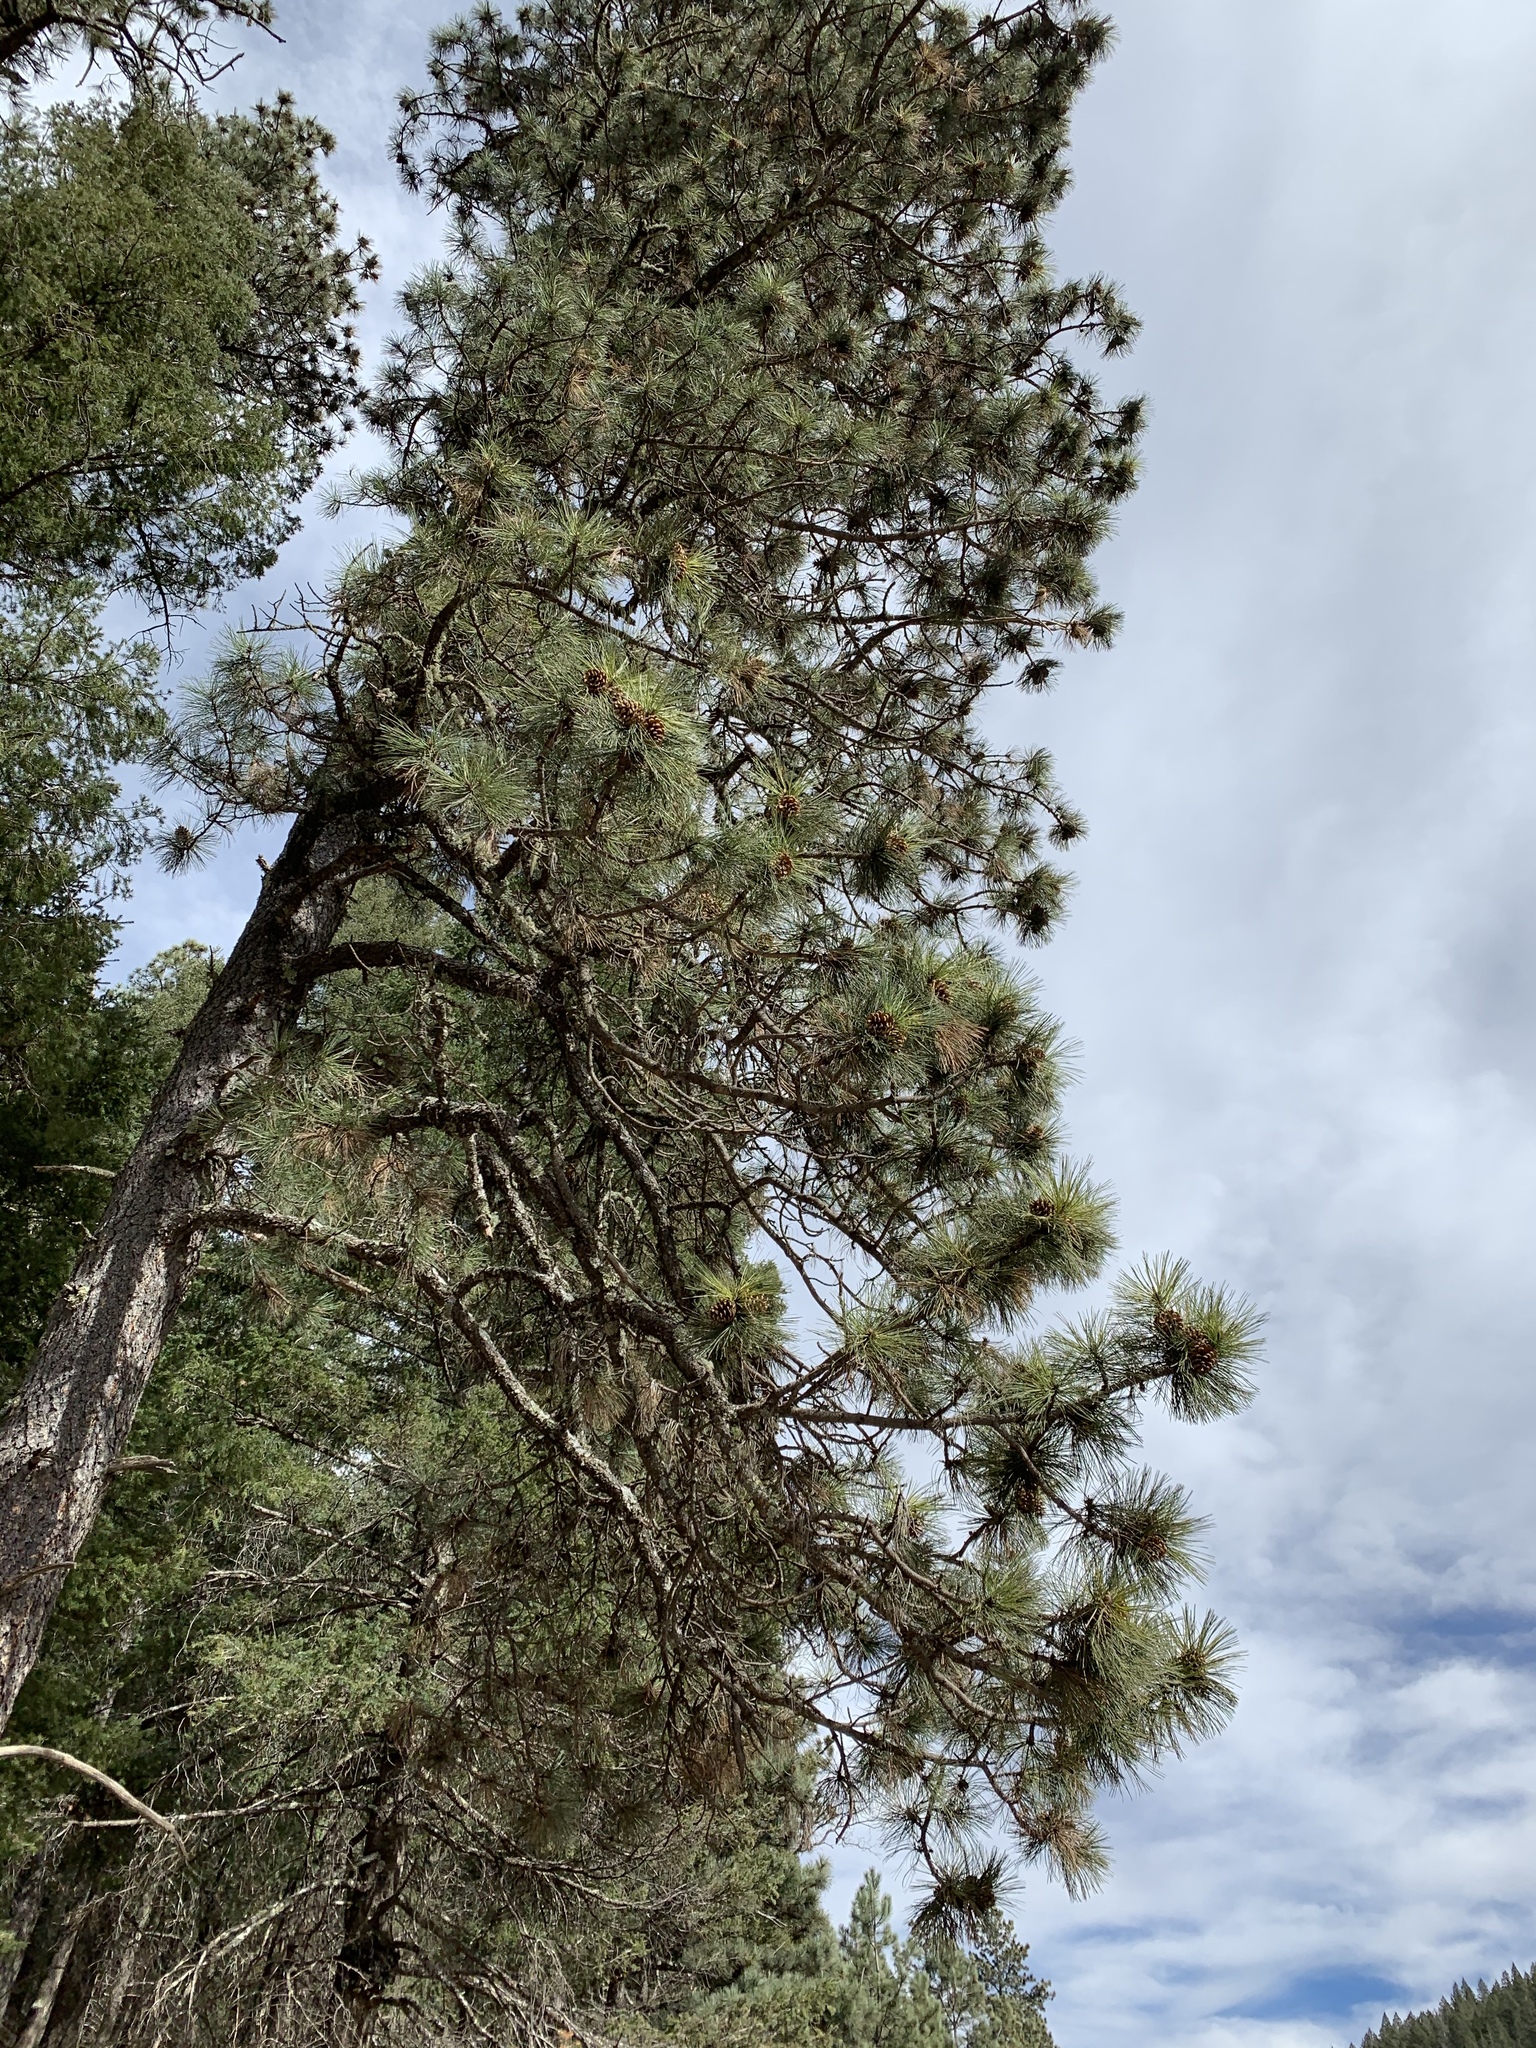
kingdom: Plantae
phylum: Tracheophyta
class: Pinopsida
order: Pinales
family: Pinaceae
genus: Pinus
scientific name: Pinus ponderosa
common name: Western yellow-pine
